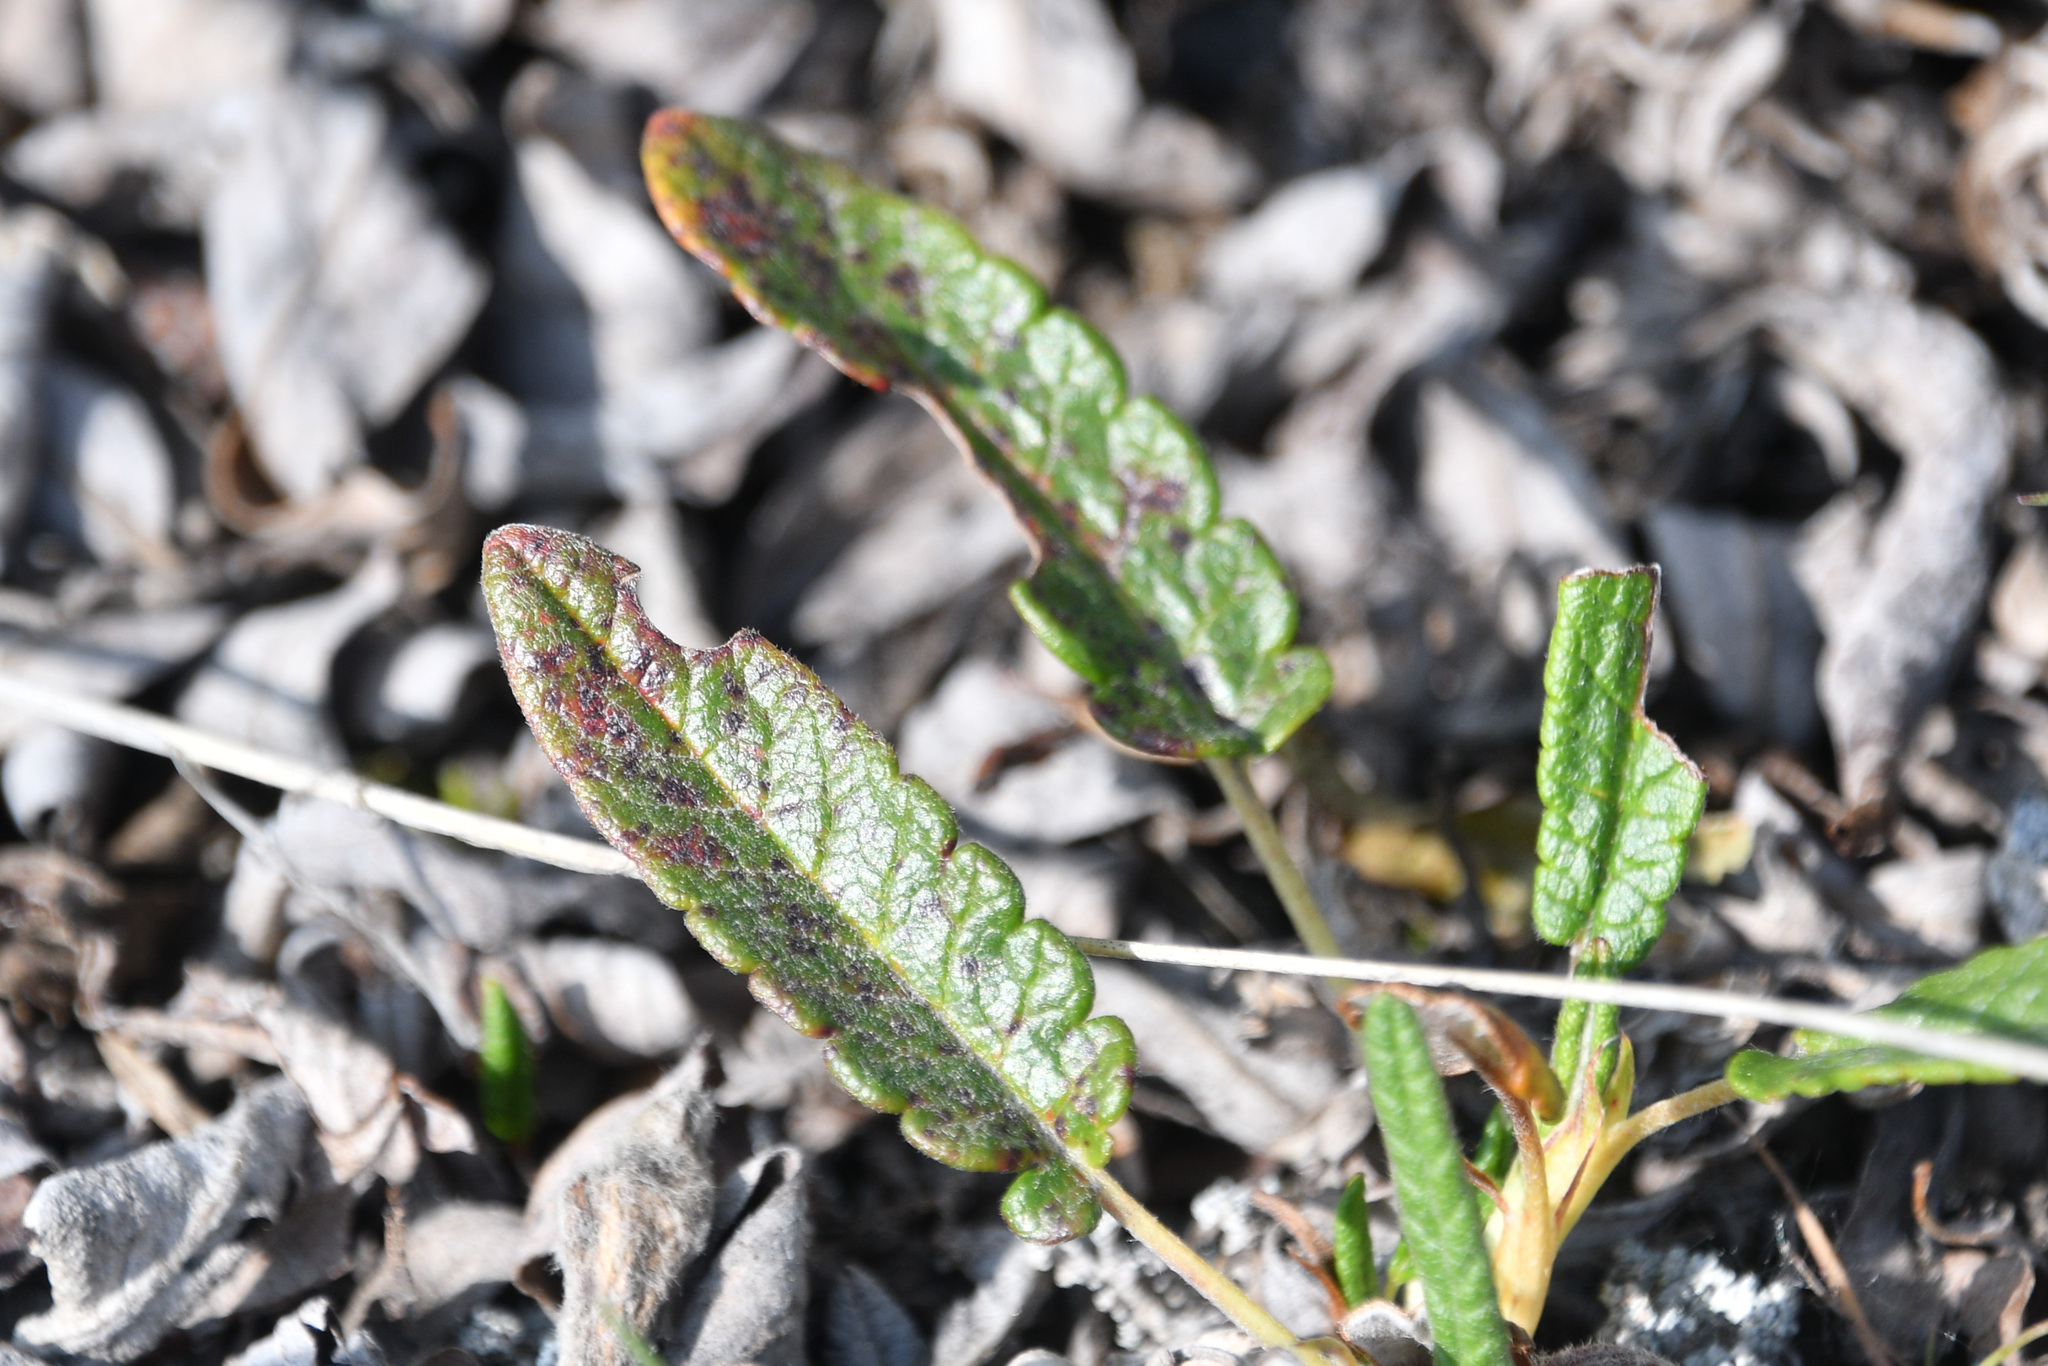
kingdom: Plantae
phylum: Tracheophyta
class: Magnoliopsida
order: Rosales
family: Rosaceae
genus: Dryas
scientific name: Dryas integrifolia
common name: Entire-leaved mountain avens
